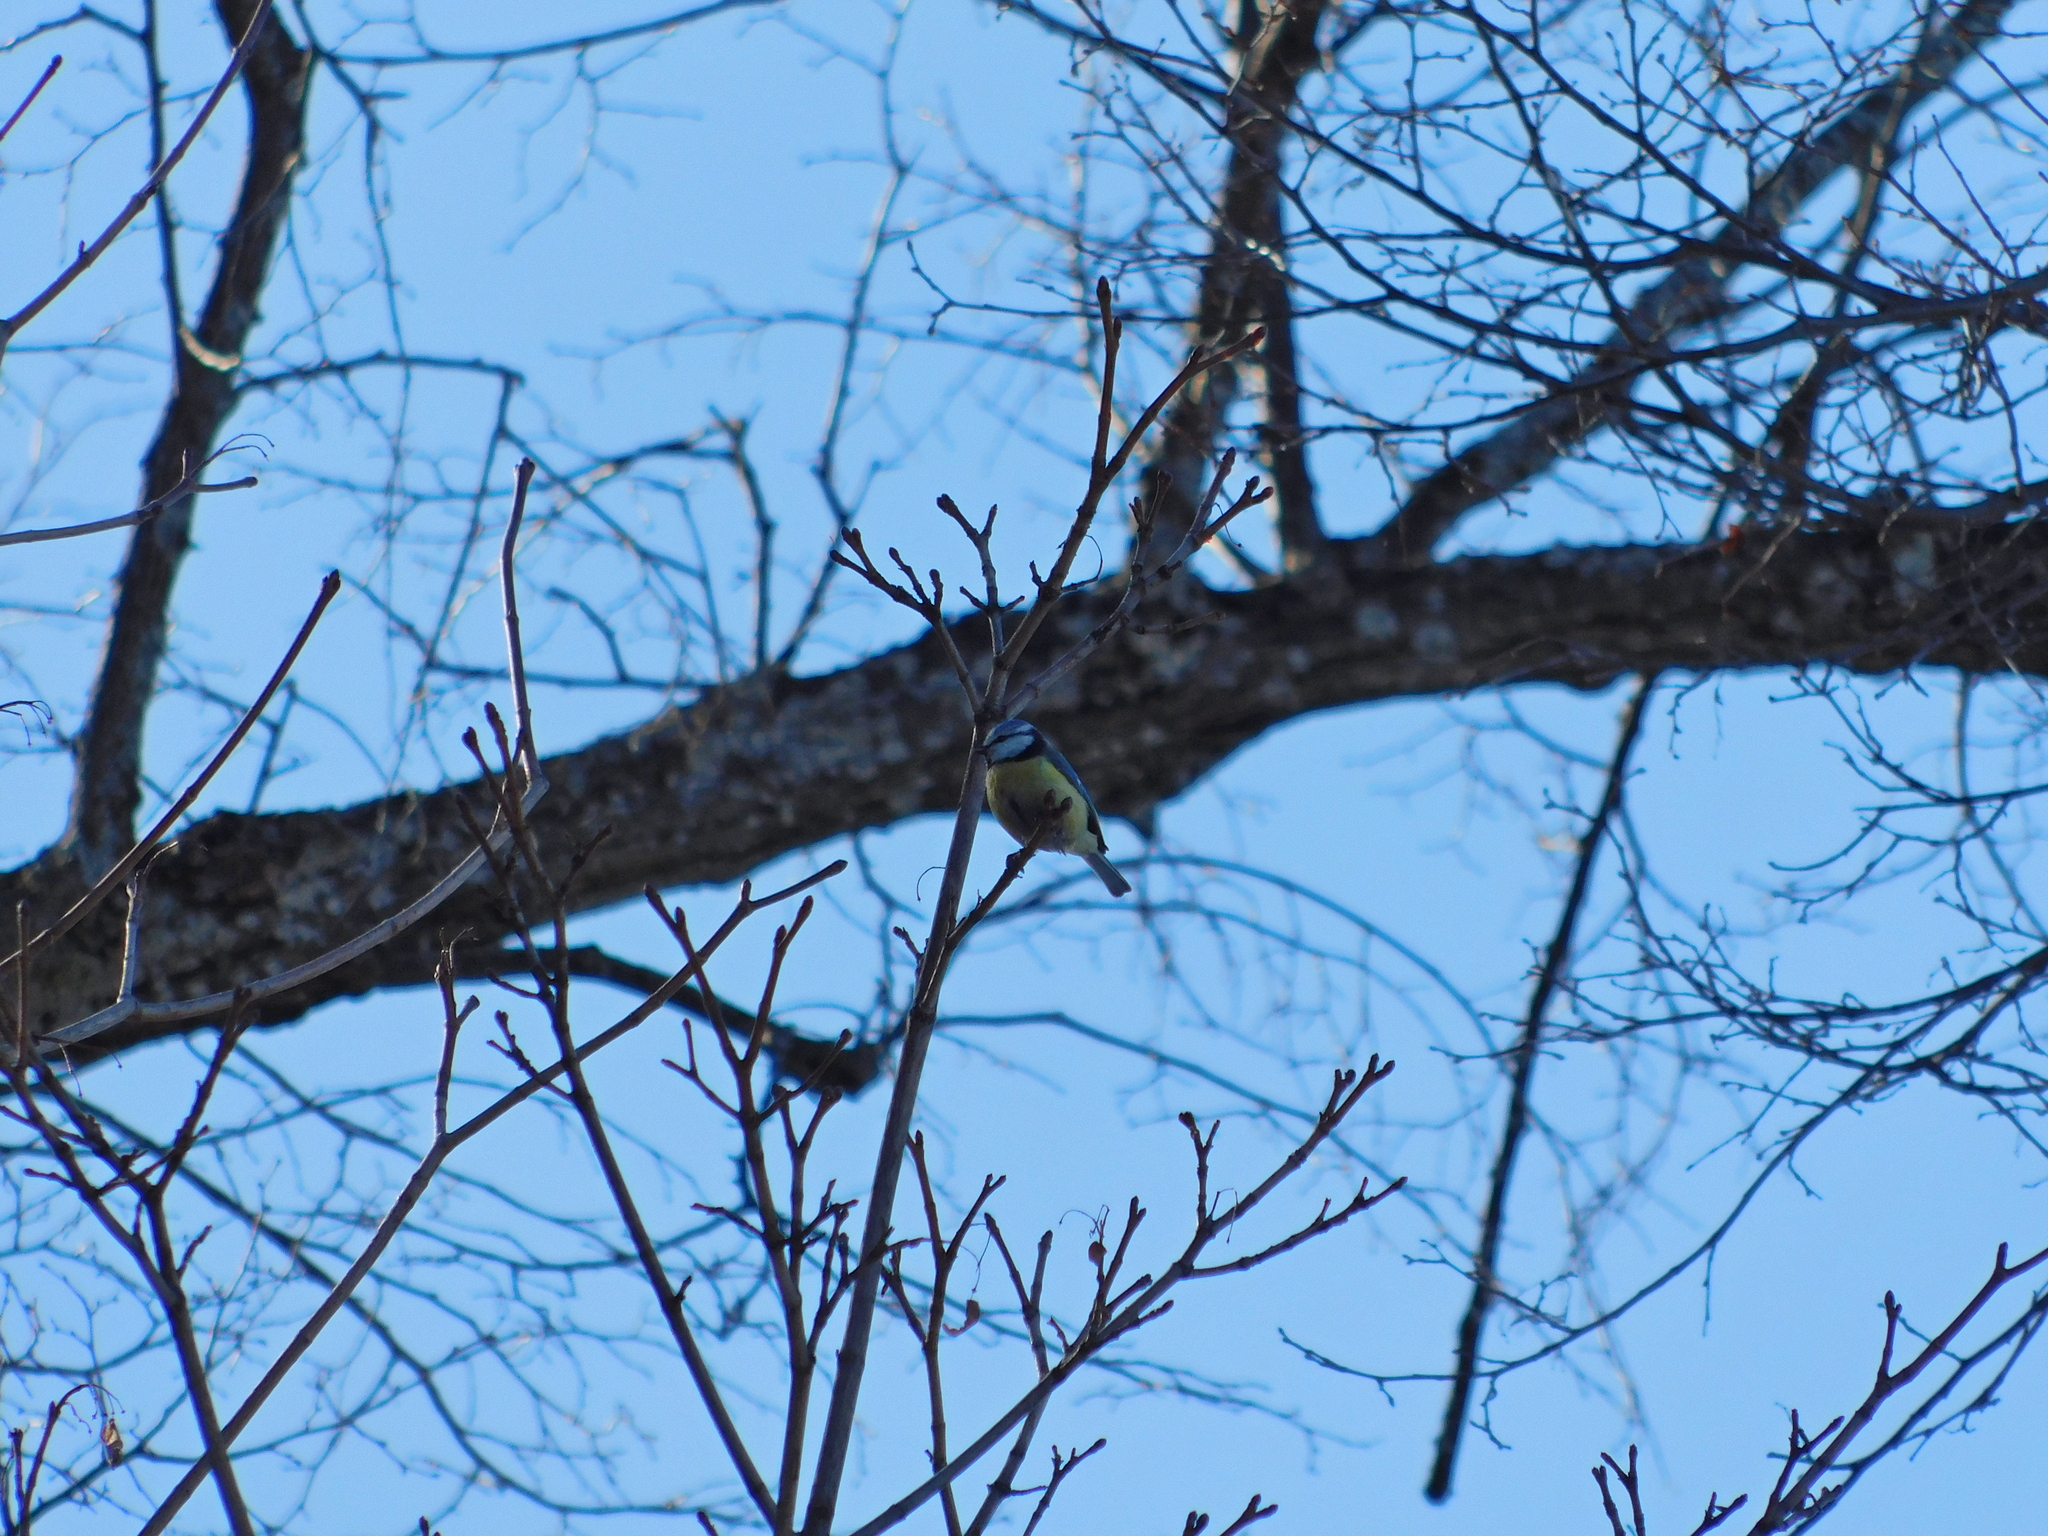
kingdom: Animalia
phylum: Chordata
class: Aves
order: Passeriformes
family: Paridae
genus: Cyanistes
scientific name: Cyanistes caeruleus
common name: Eurasian blue tit
